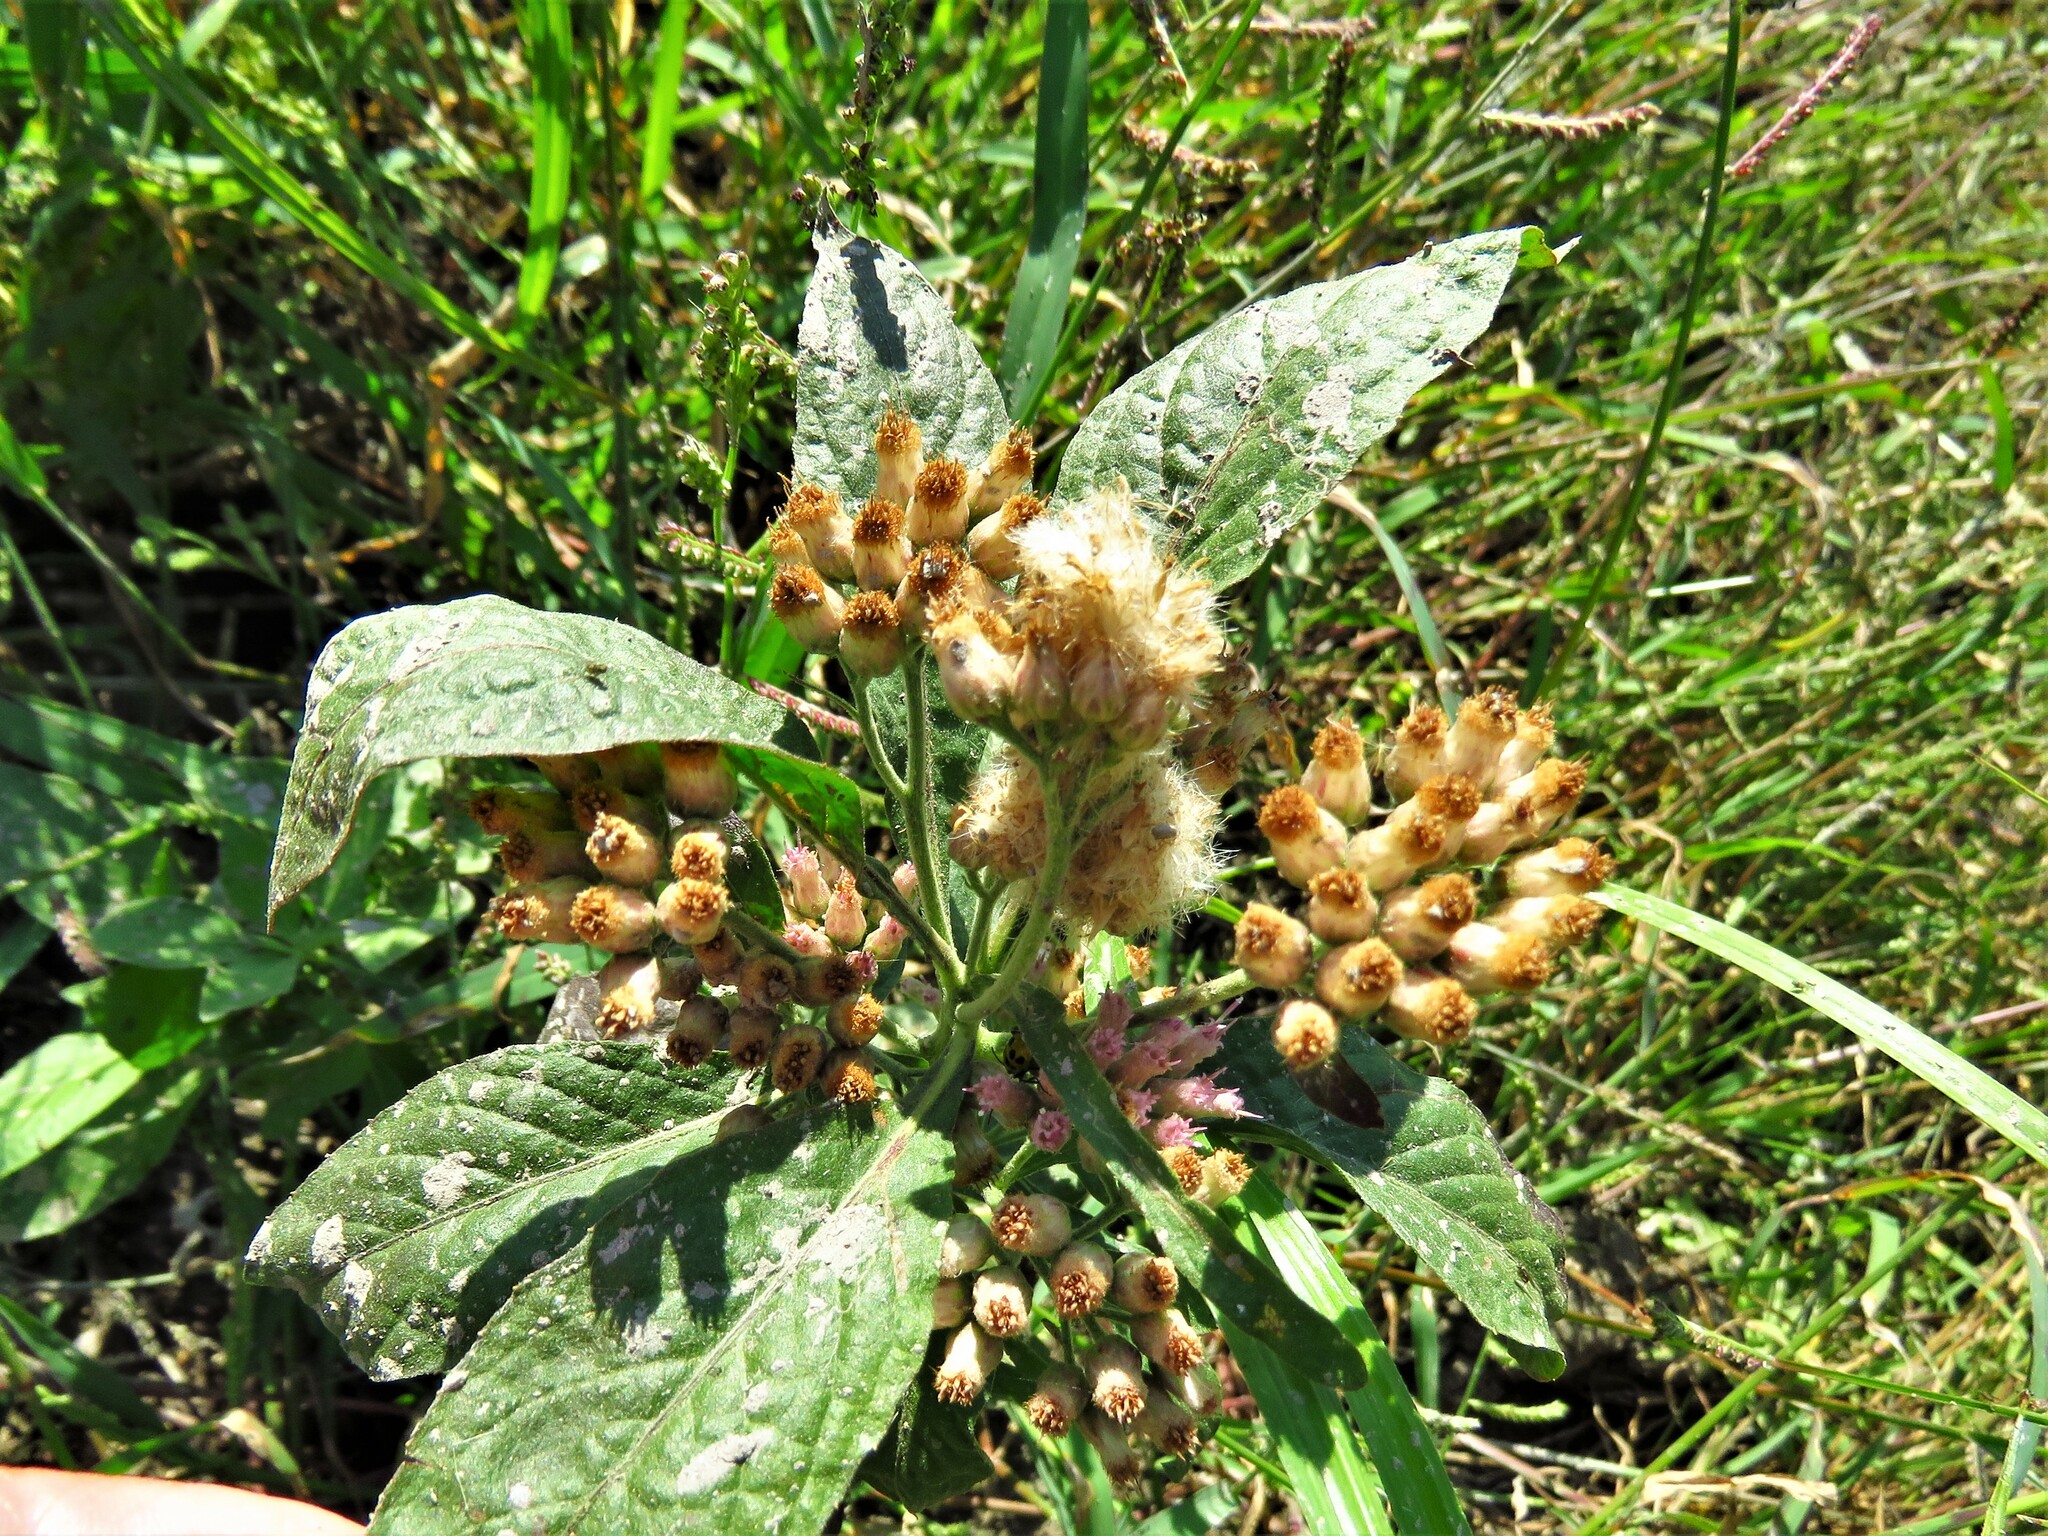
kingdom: Plantae
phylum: Tracheophyta
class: Magnoliopsida
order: Asterales
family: Asteraceae
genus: Pluchea
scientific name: Pluchea camphorata
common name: Camphor pluchea
